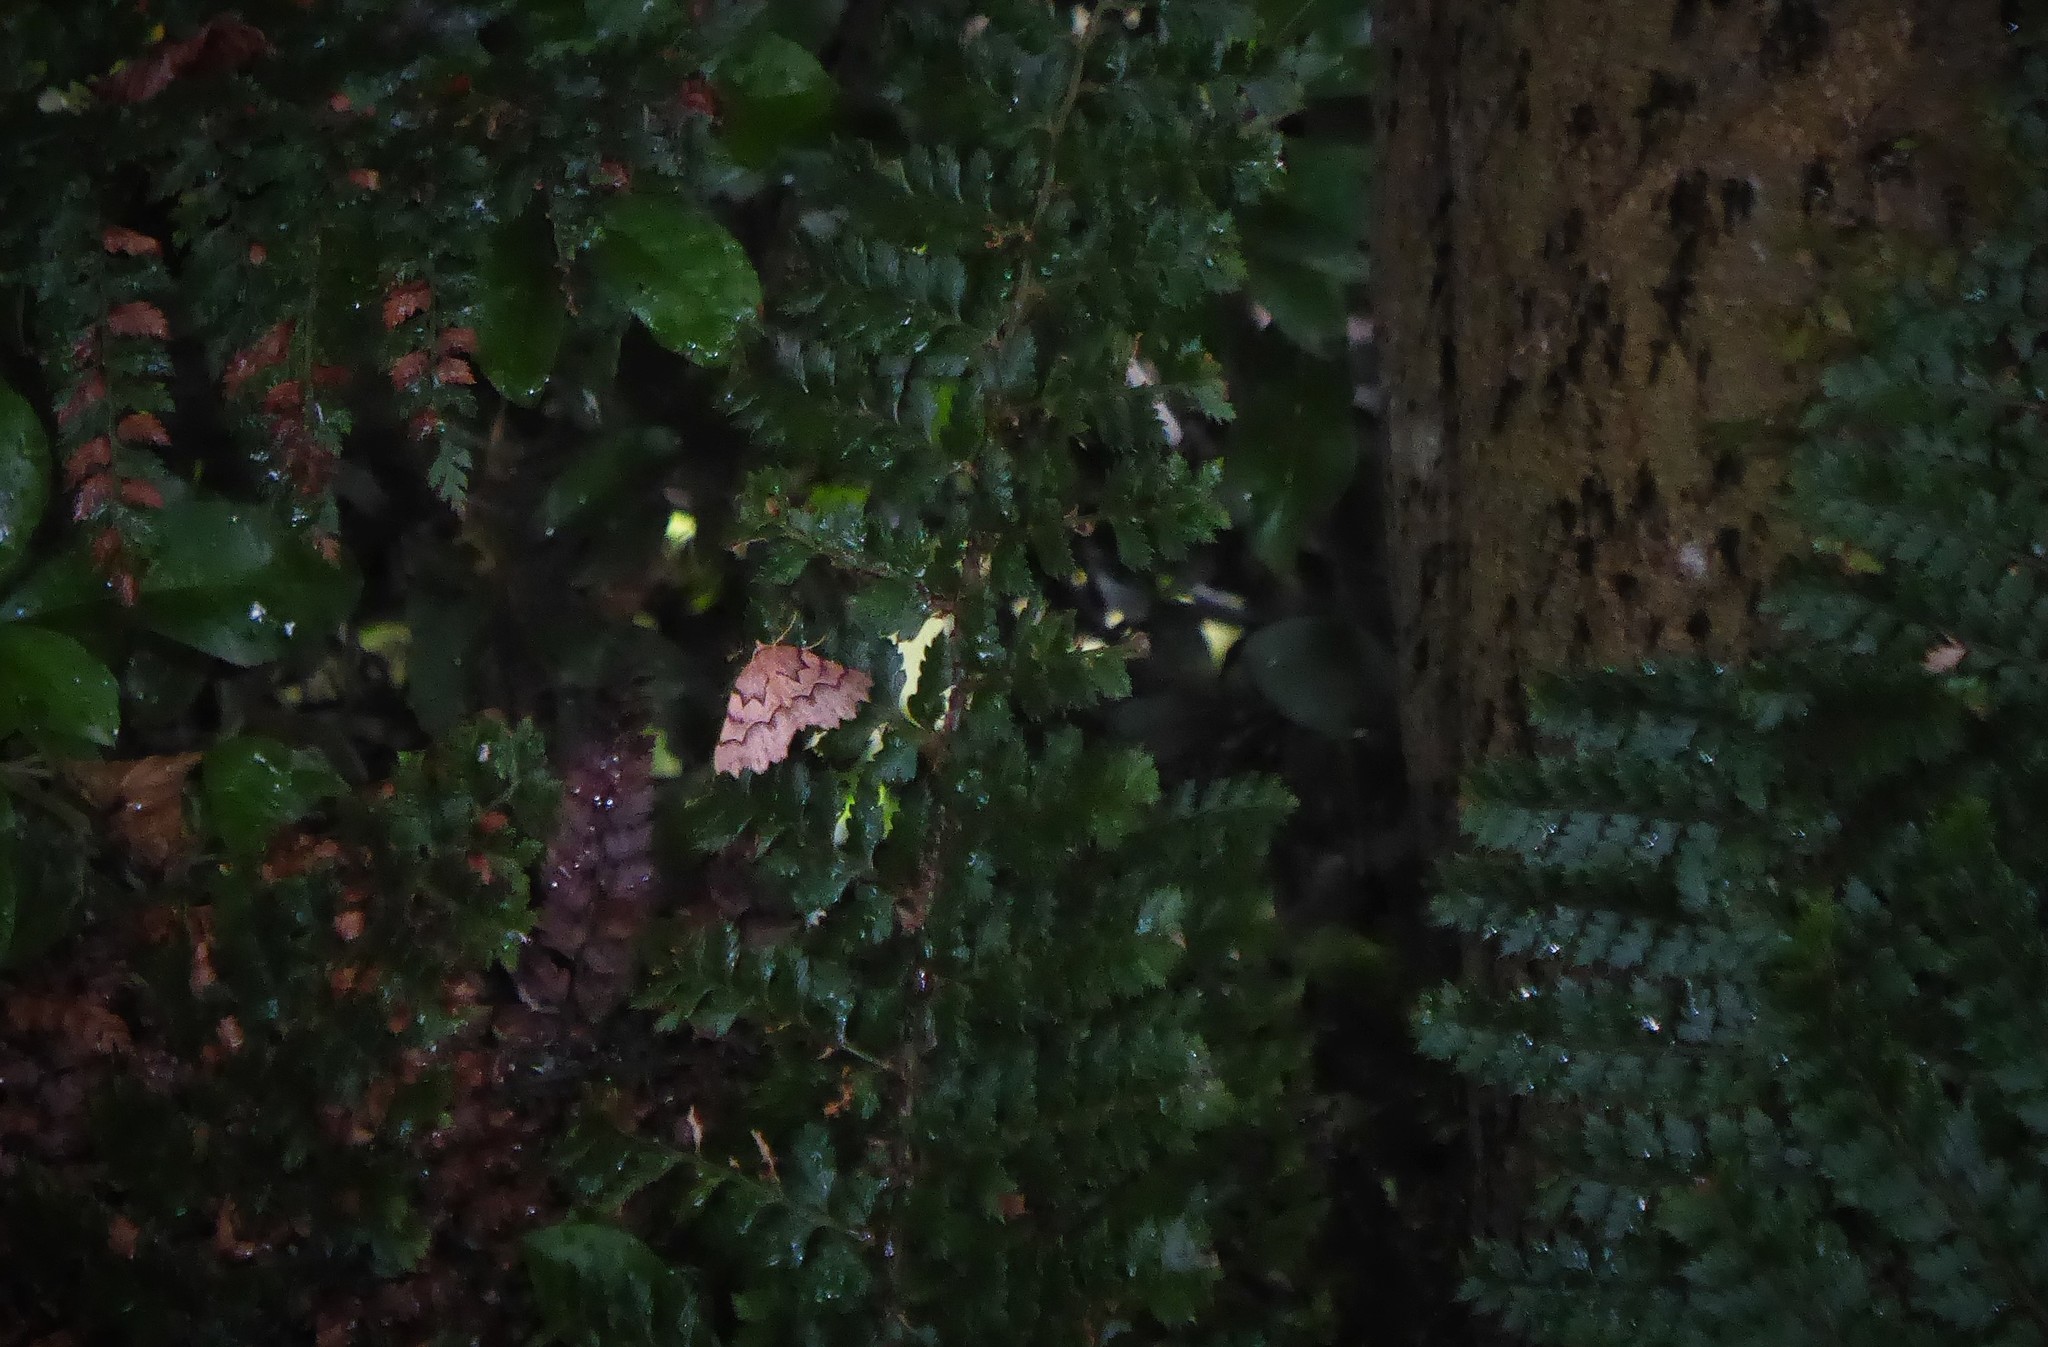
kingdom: Animalia
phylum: Arthropoda
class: Insecta
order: Lepidoptera
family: Geometridae
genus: Ischalis
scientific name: Ischalis fortinata
